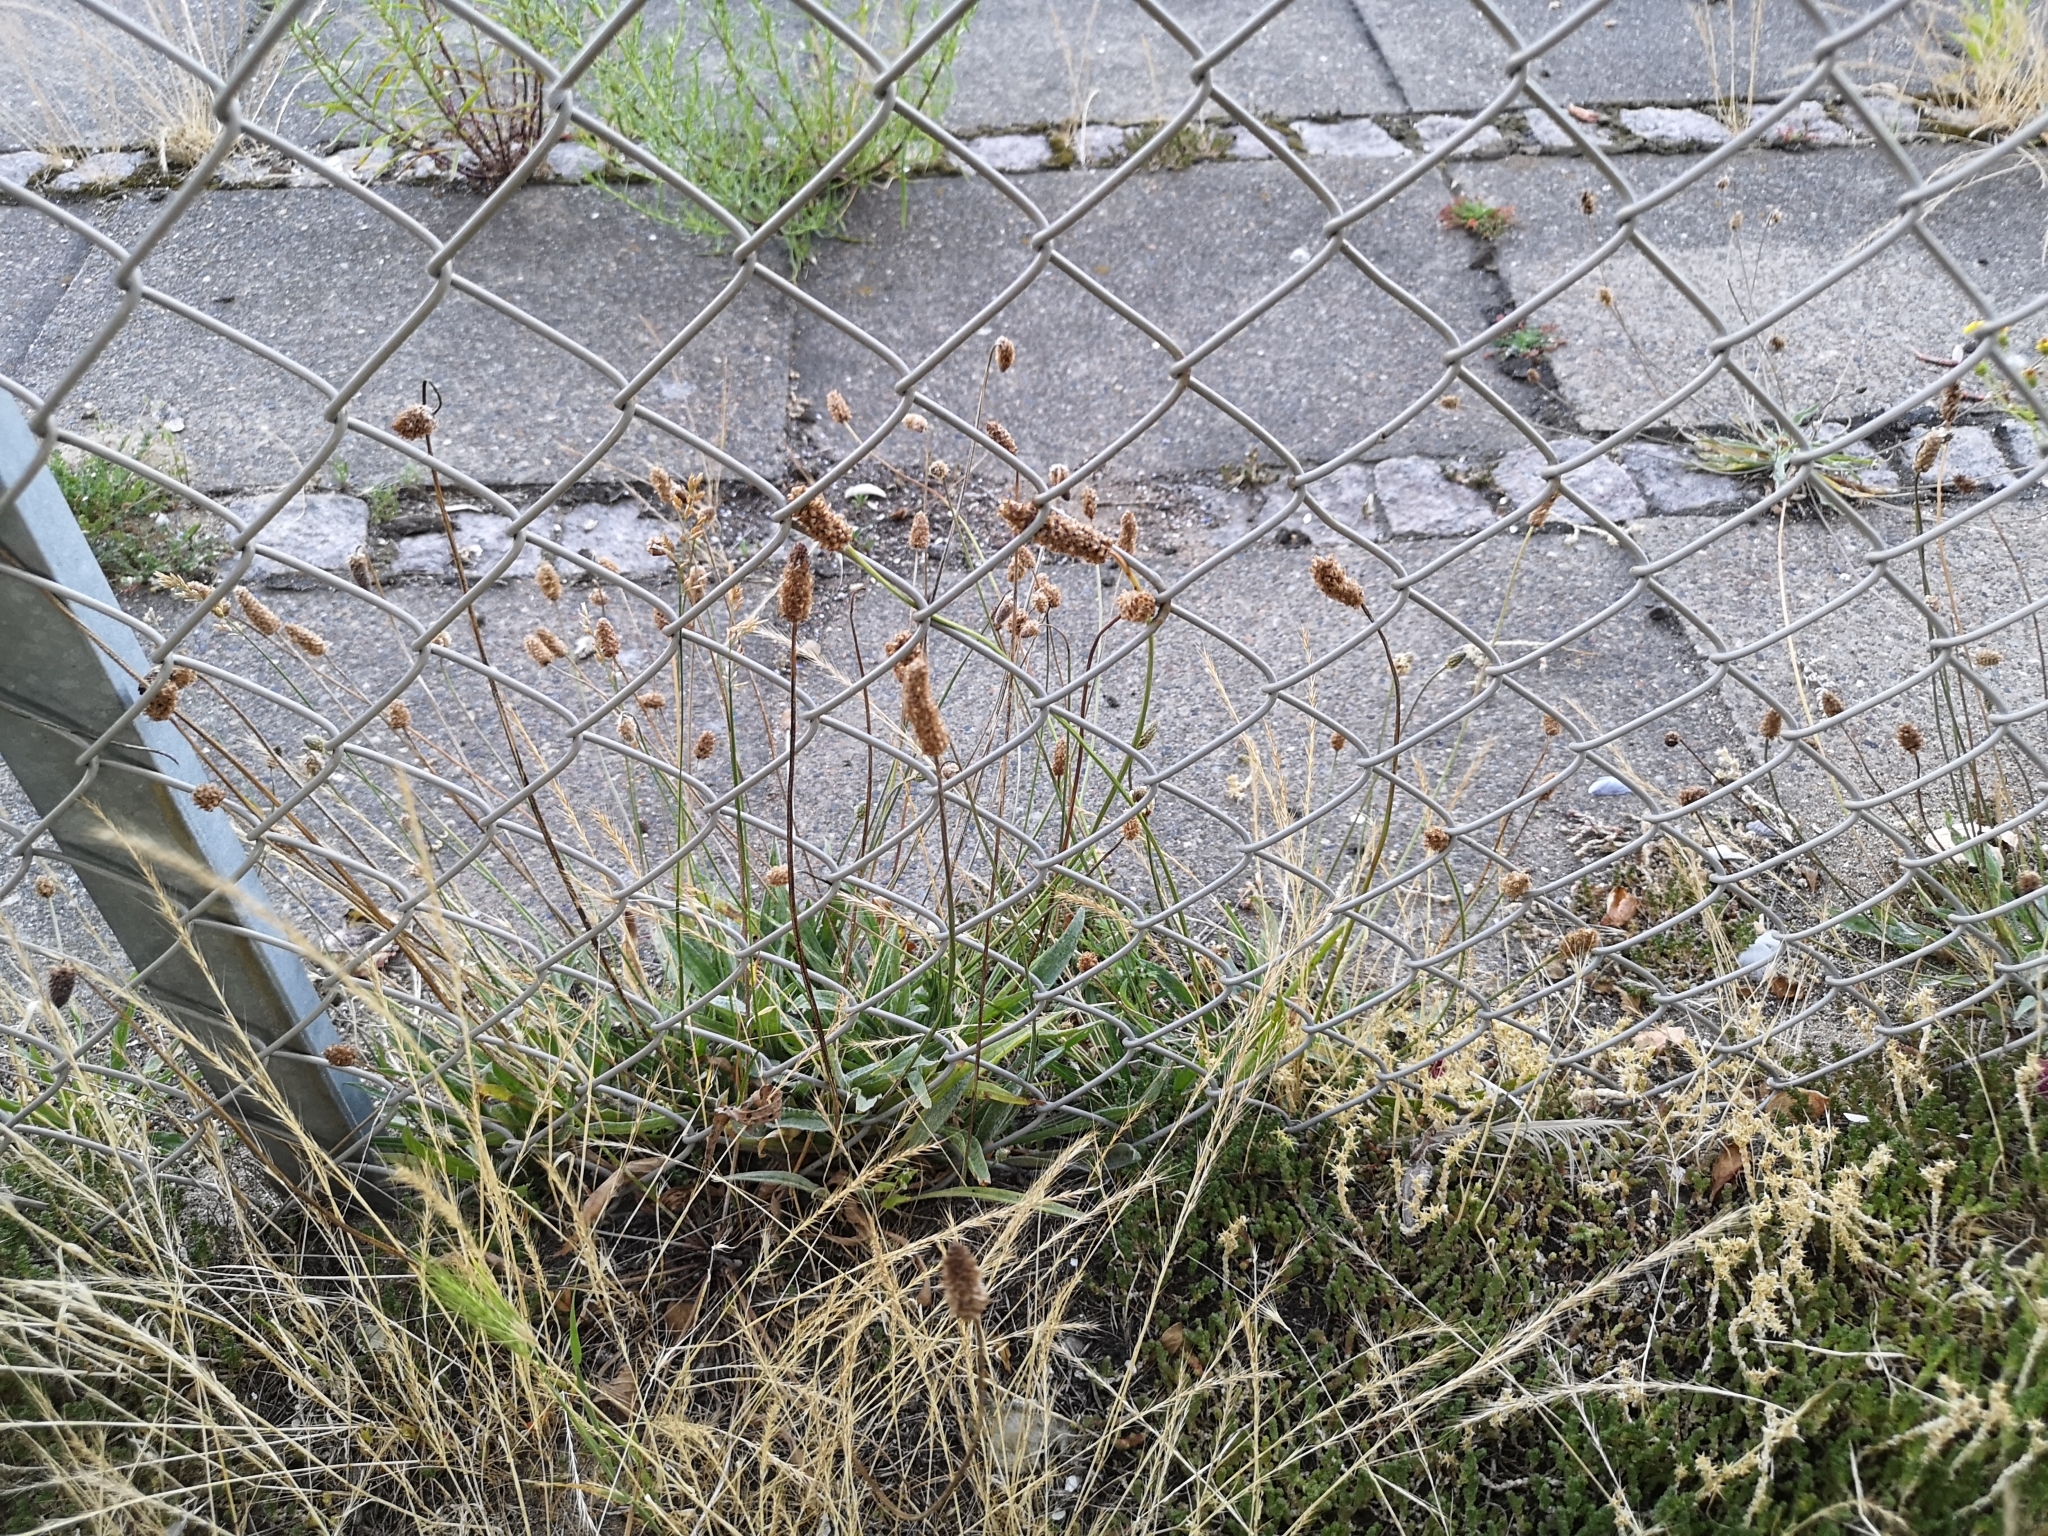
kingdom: Plantae
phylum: Tracheophyta
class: Magnoliopsida
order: Lamiales
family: Plantaginaceae
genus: Plantago
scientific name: Plantago lanceolata
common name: Ribwort plantain
